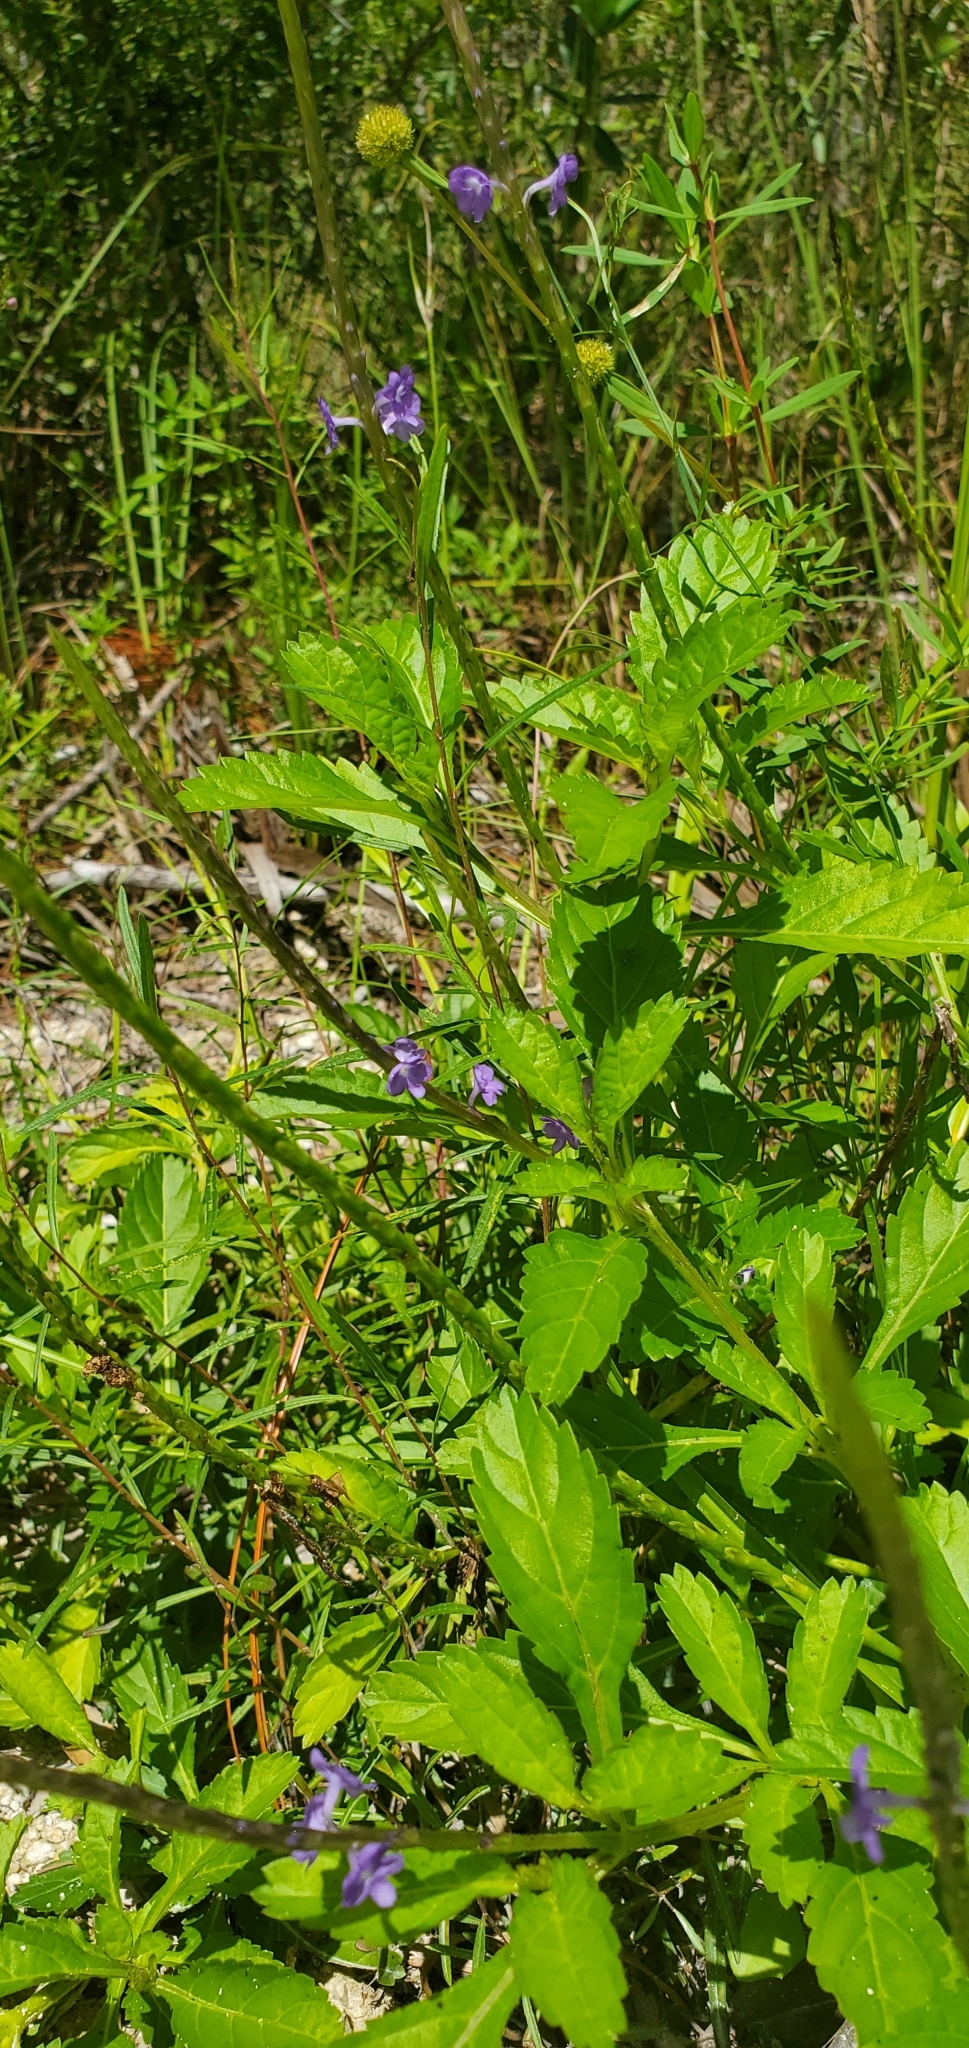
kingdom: Plantae
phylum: Tracheophyta
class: Magnoliopsida
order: Lamiales
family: Verbenaceae
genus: Stachytarpheta
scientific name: Stachytarpheta jamaicensis
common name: Light-blue snakeweed
